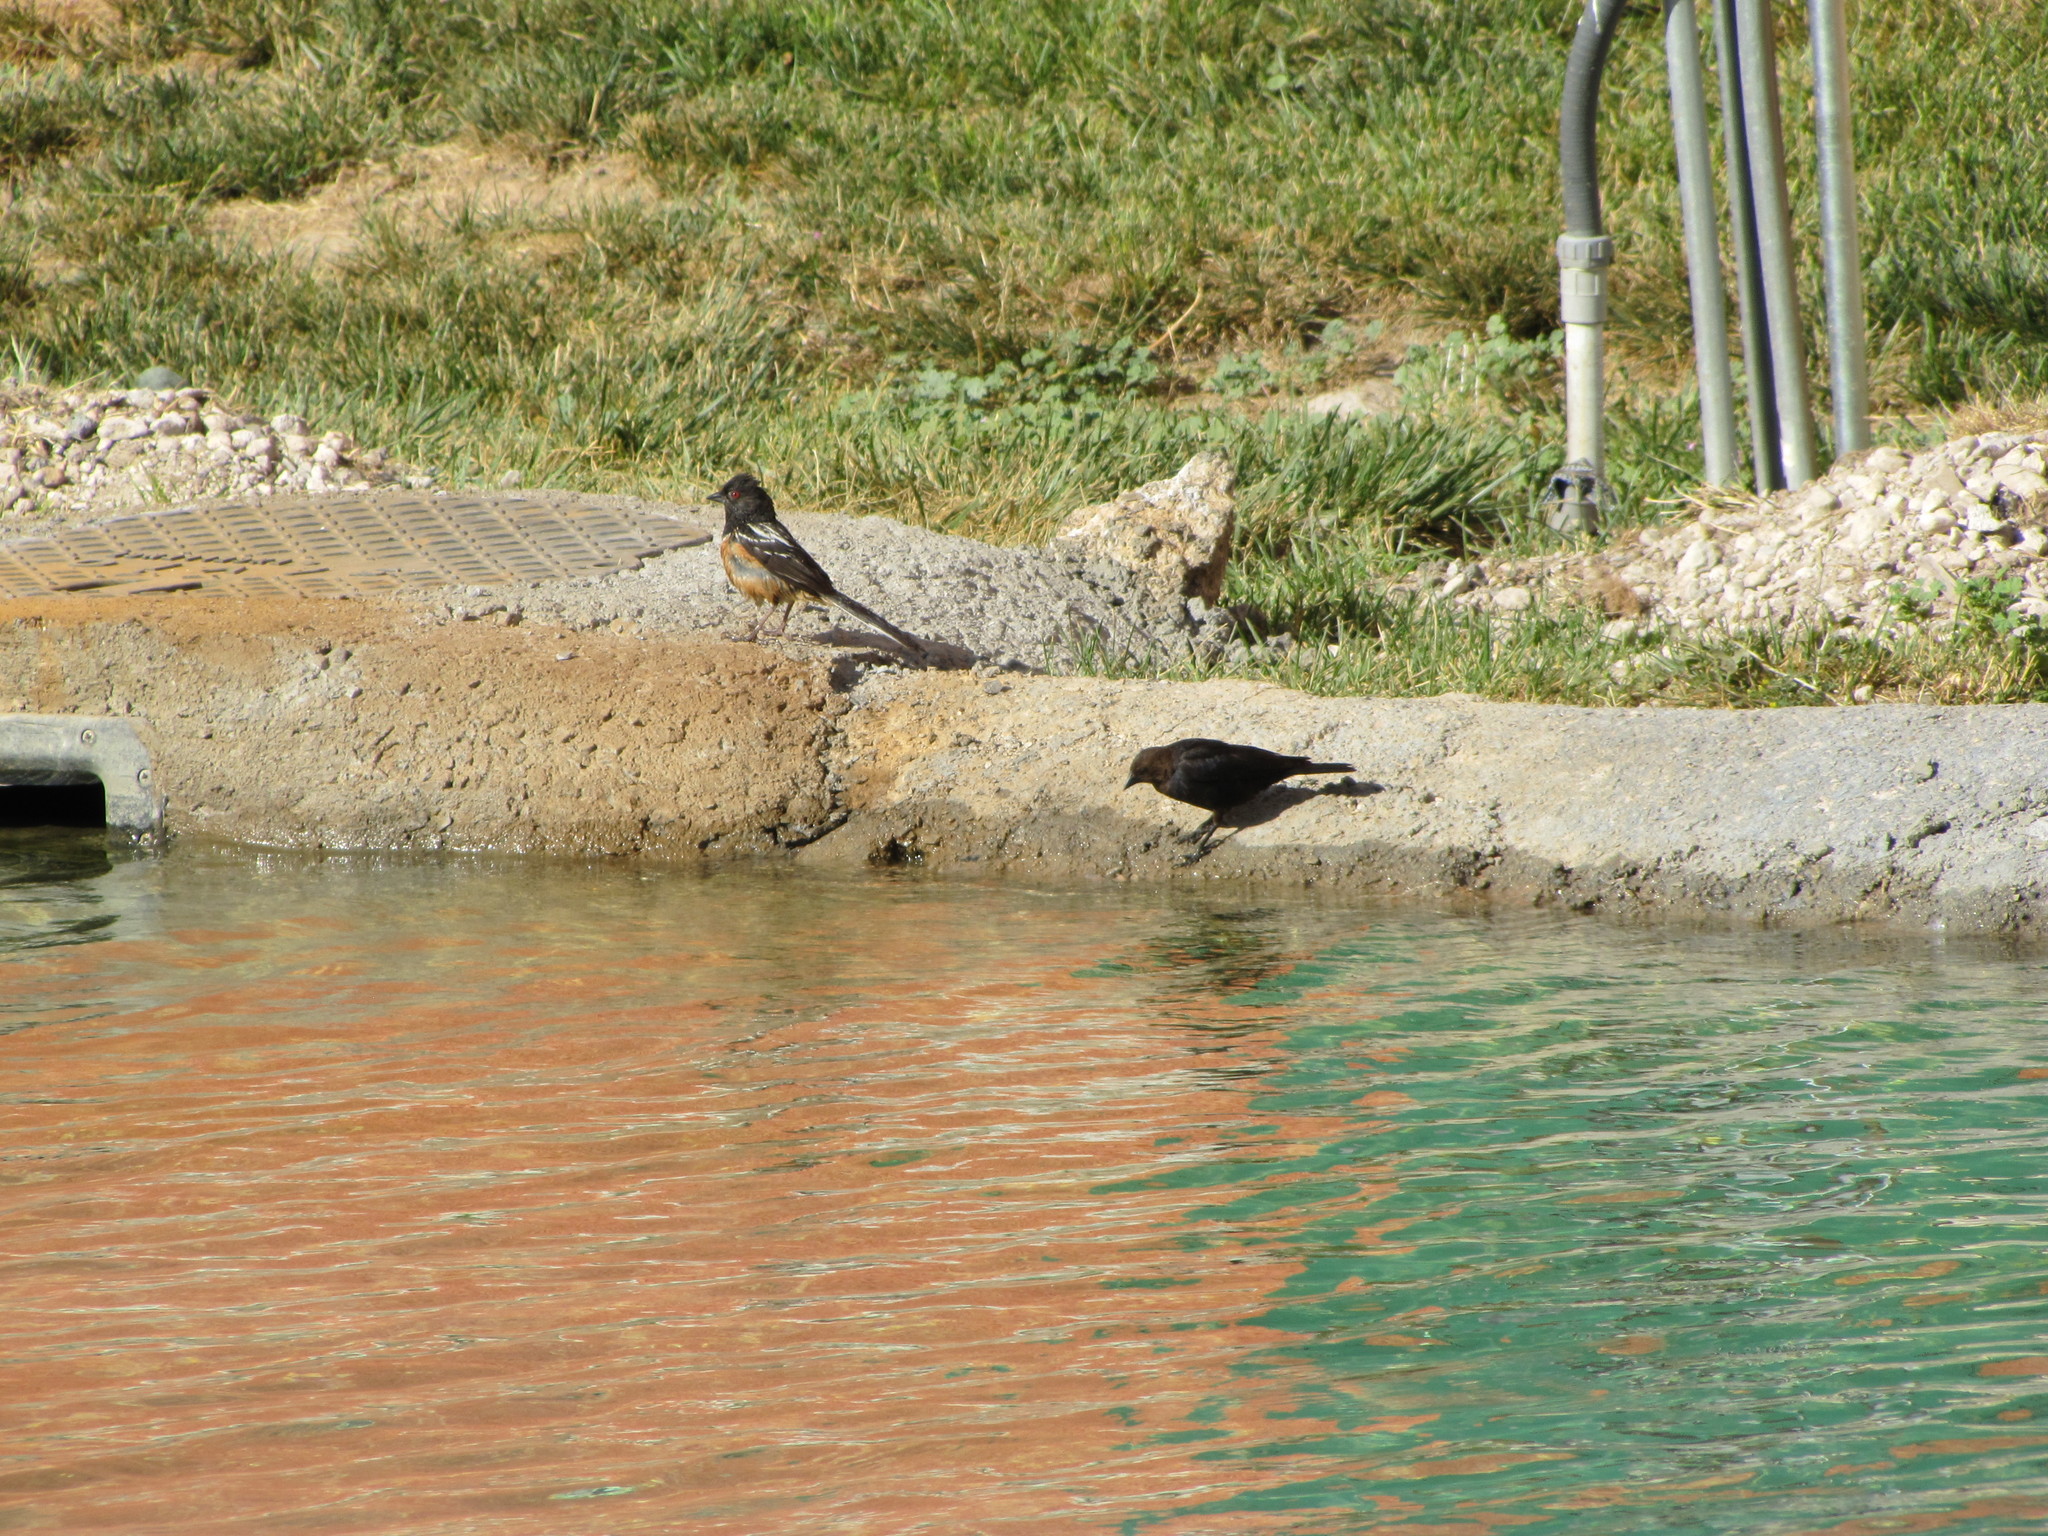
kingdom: Animalia
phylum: Chordata
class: Aves
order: Passeriformes
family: Icteridae
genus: Molothrus
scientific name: Molothrus ater
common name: Brown-headed cowbird
